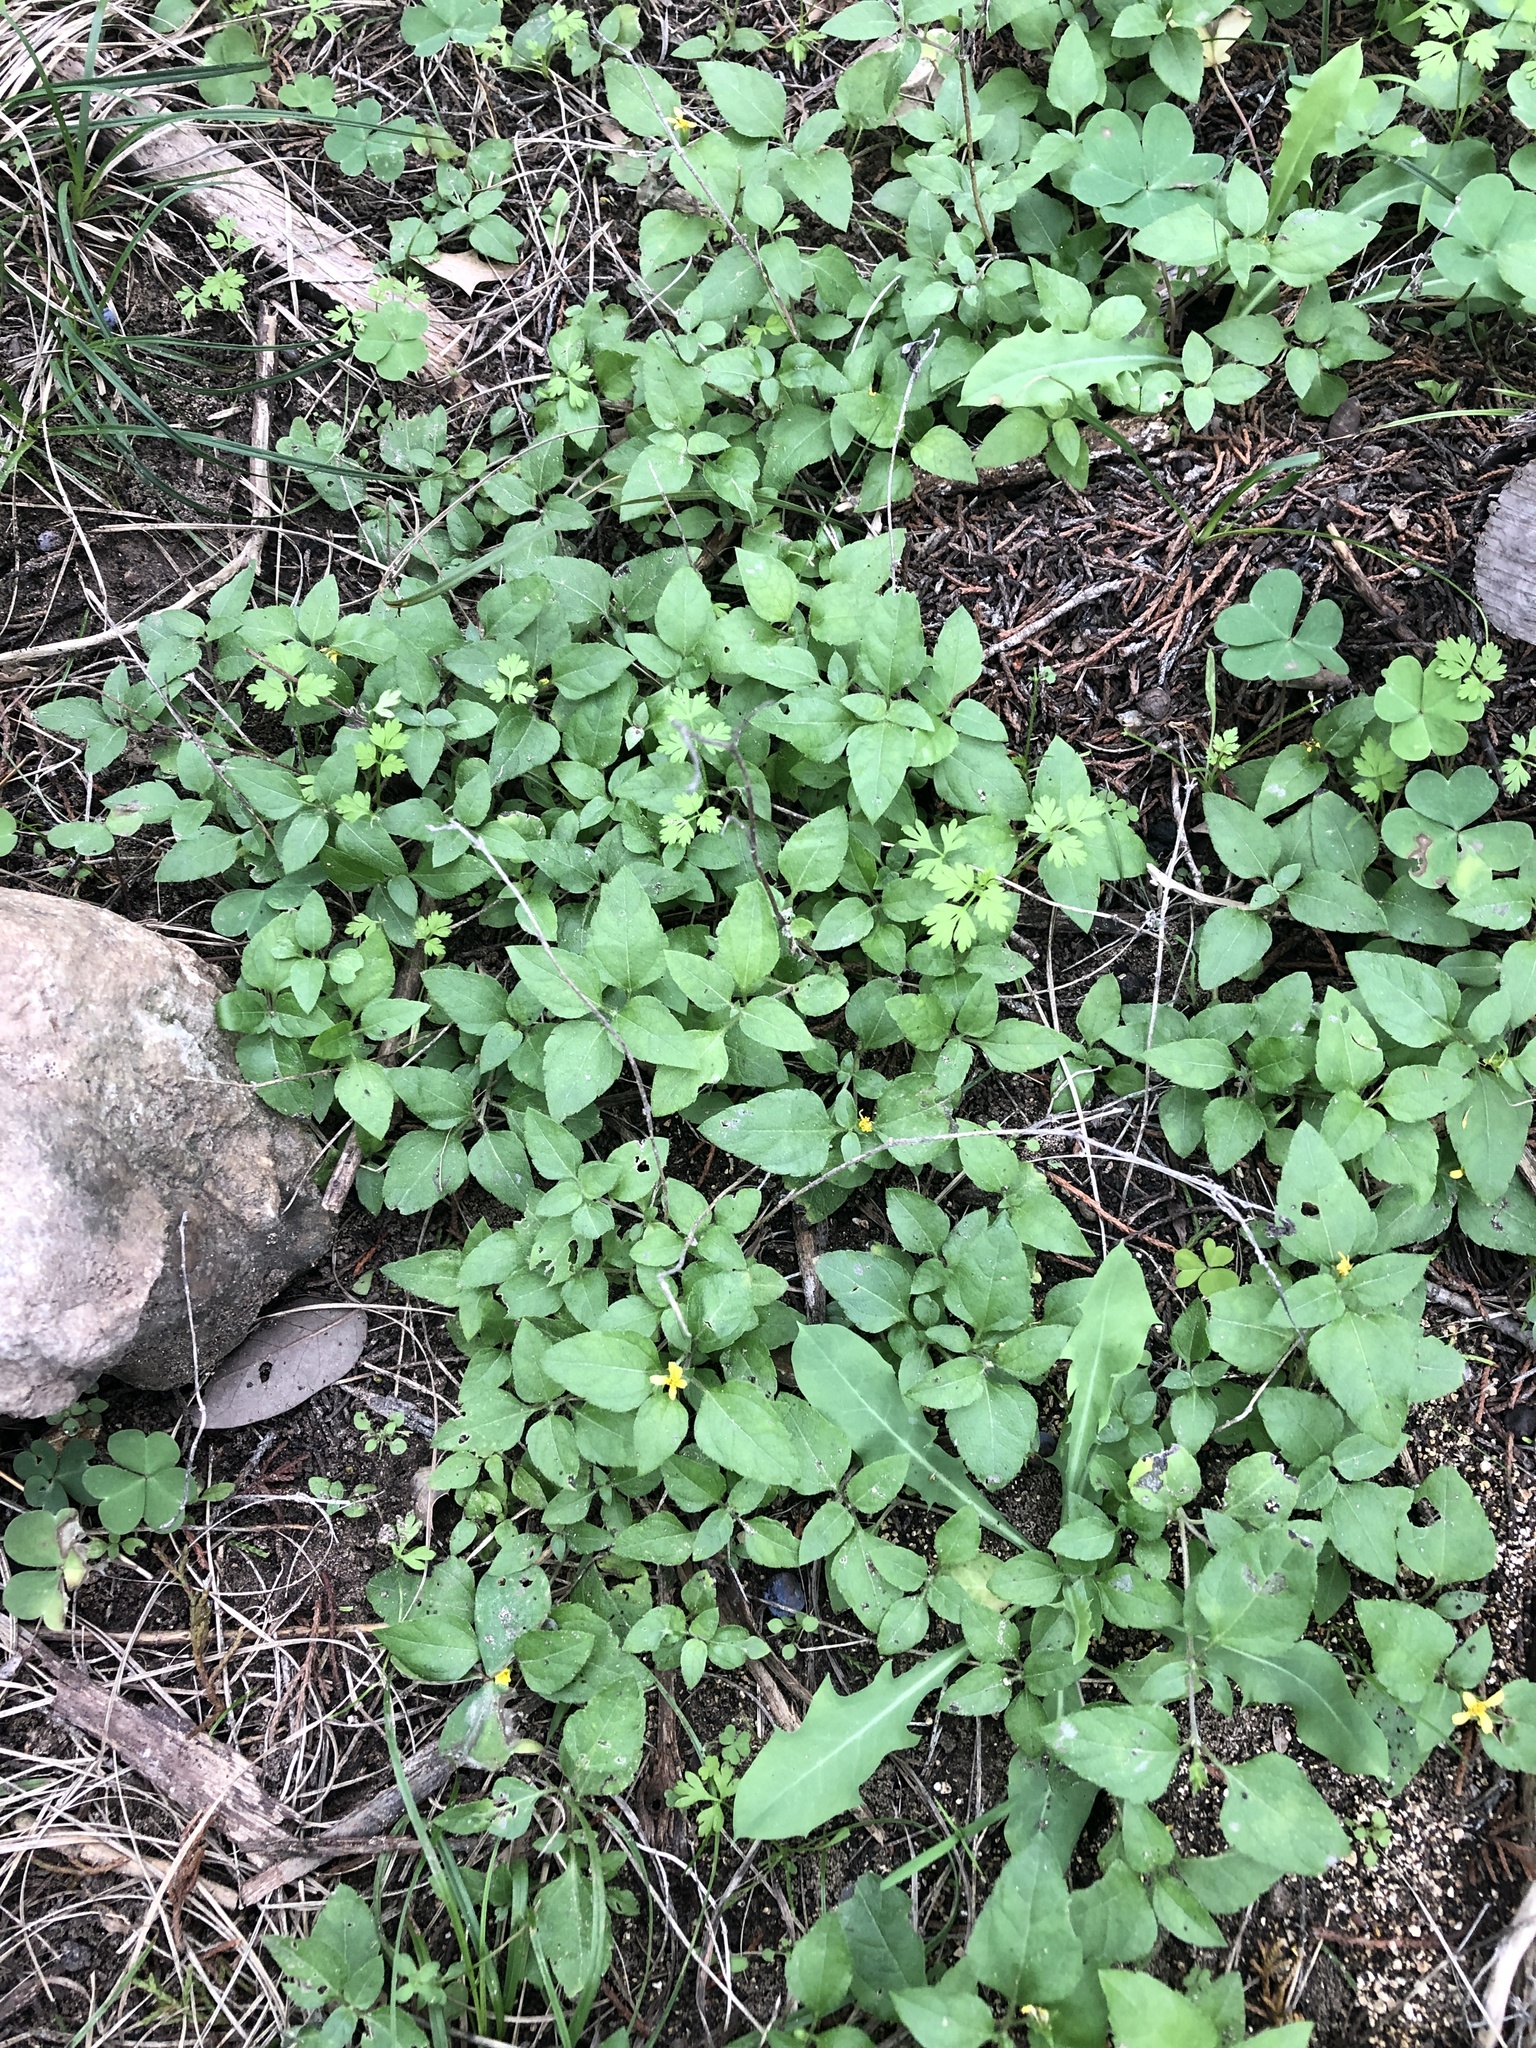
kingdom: Plantae
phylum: Tracheophyta
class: Magnoliopsida
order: Asterales
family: Asteraceae
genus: Calyptocarpus
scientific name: Calyptocarpus vialis
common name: Straggler daisy
